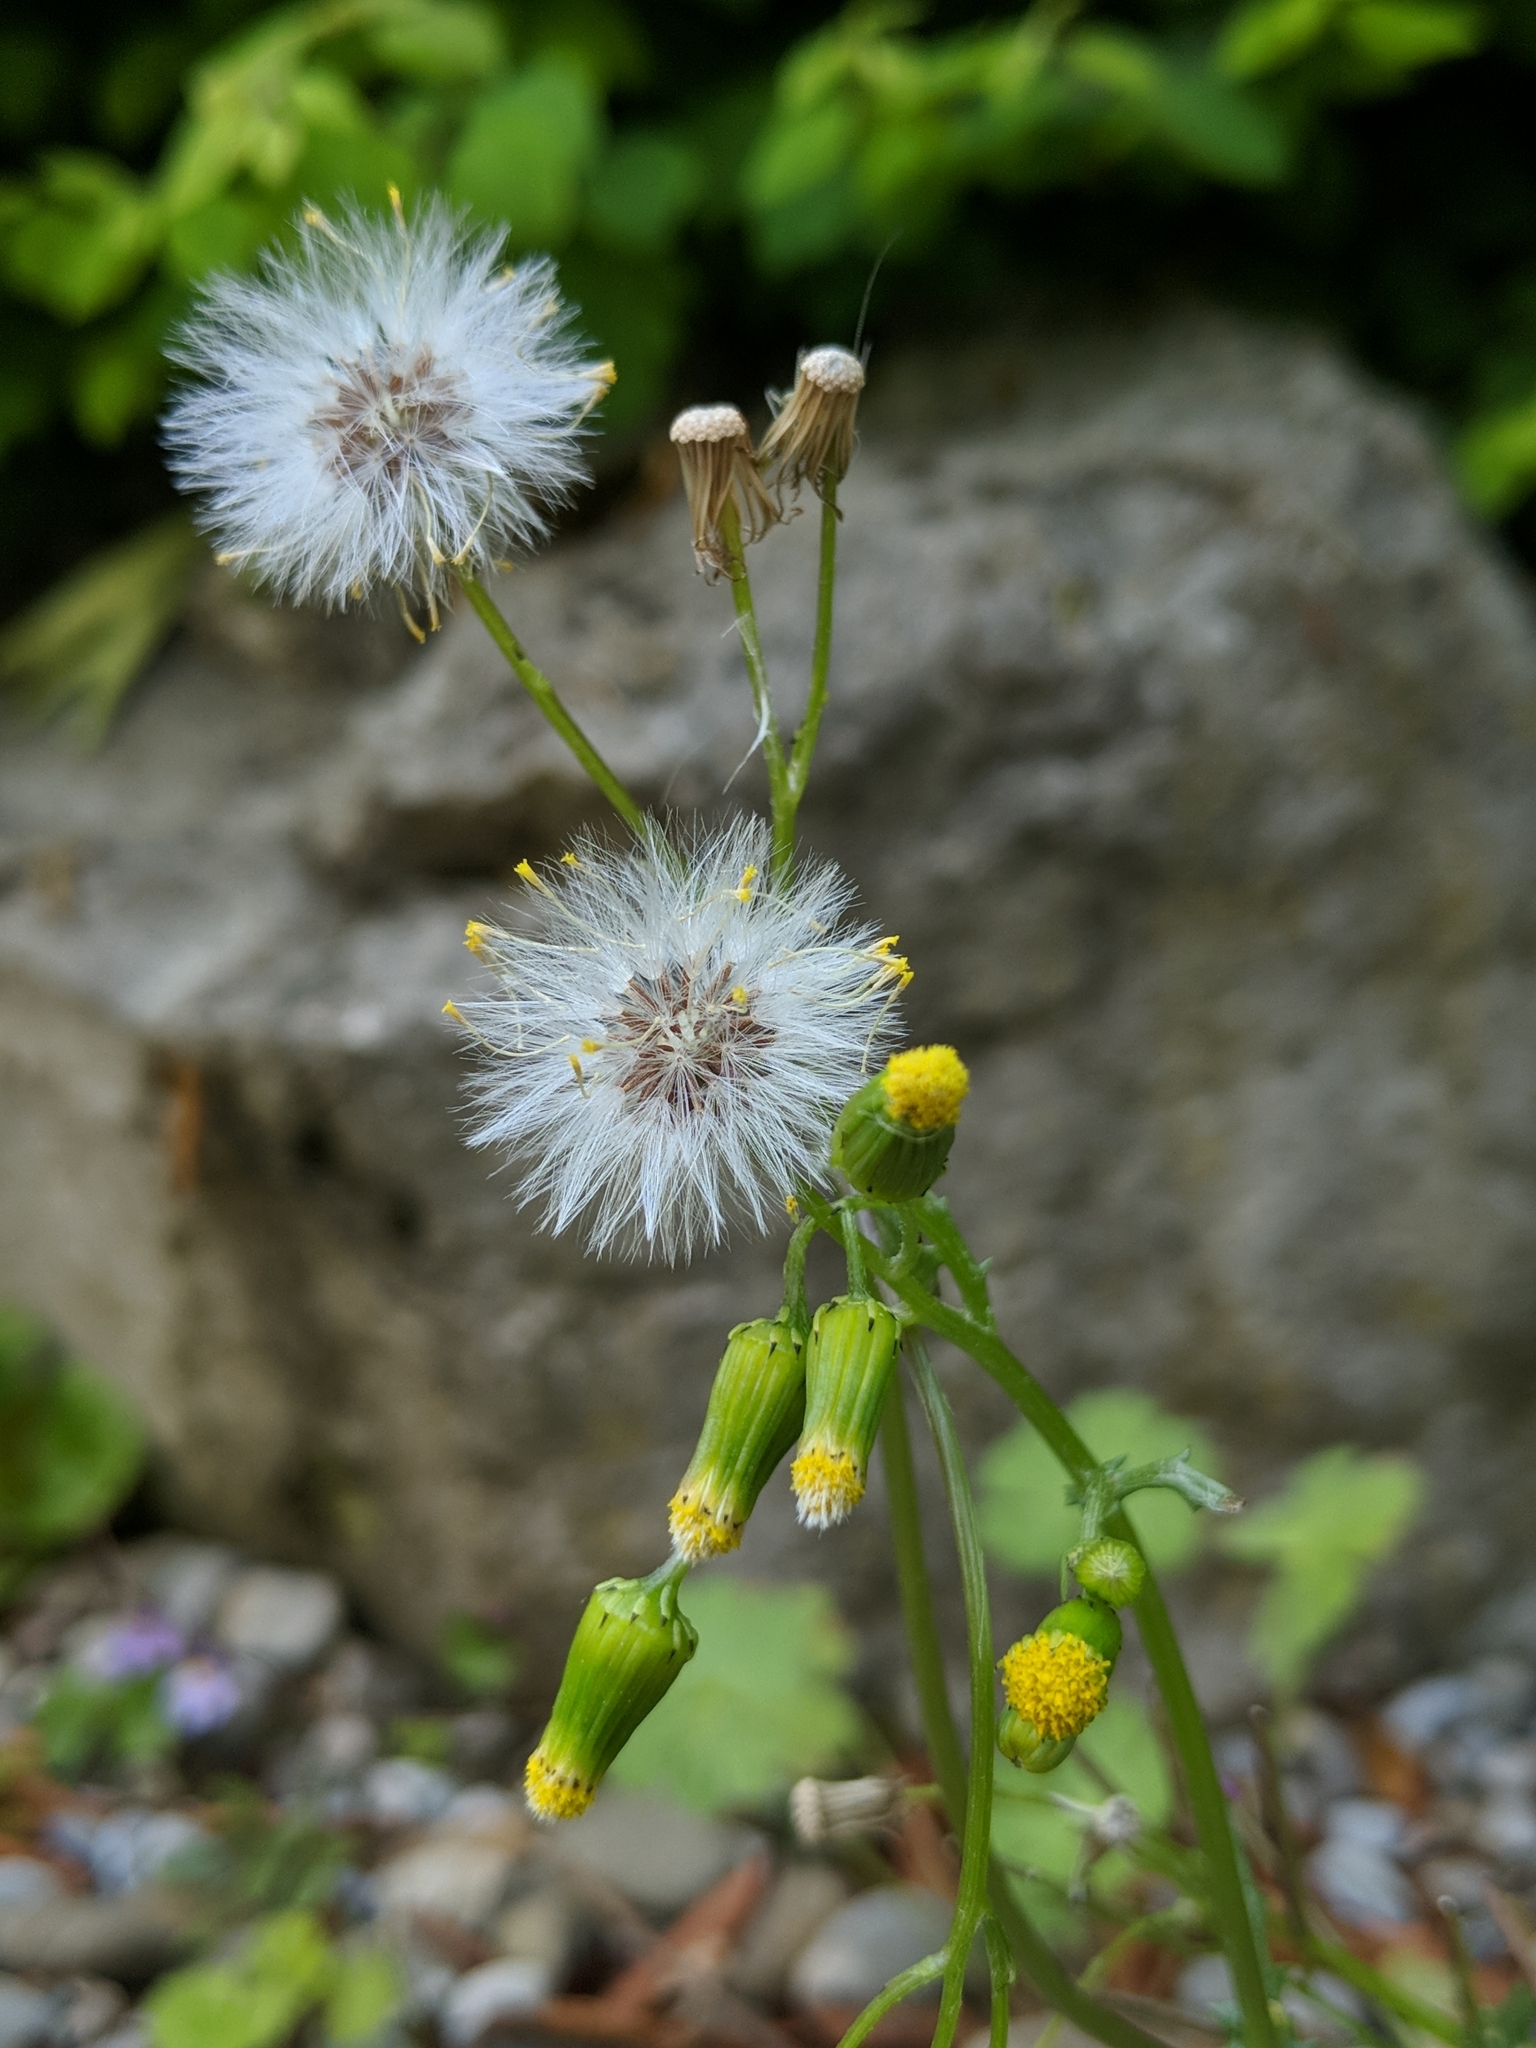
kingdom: Plantae
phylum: Tracheophyta
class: Magnoliopsida
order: Asterales
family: Asteraceae
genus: Senecio
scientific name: Senecio vulgaris
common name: Old-man-in-the-spring
